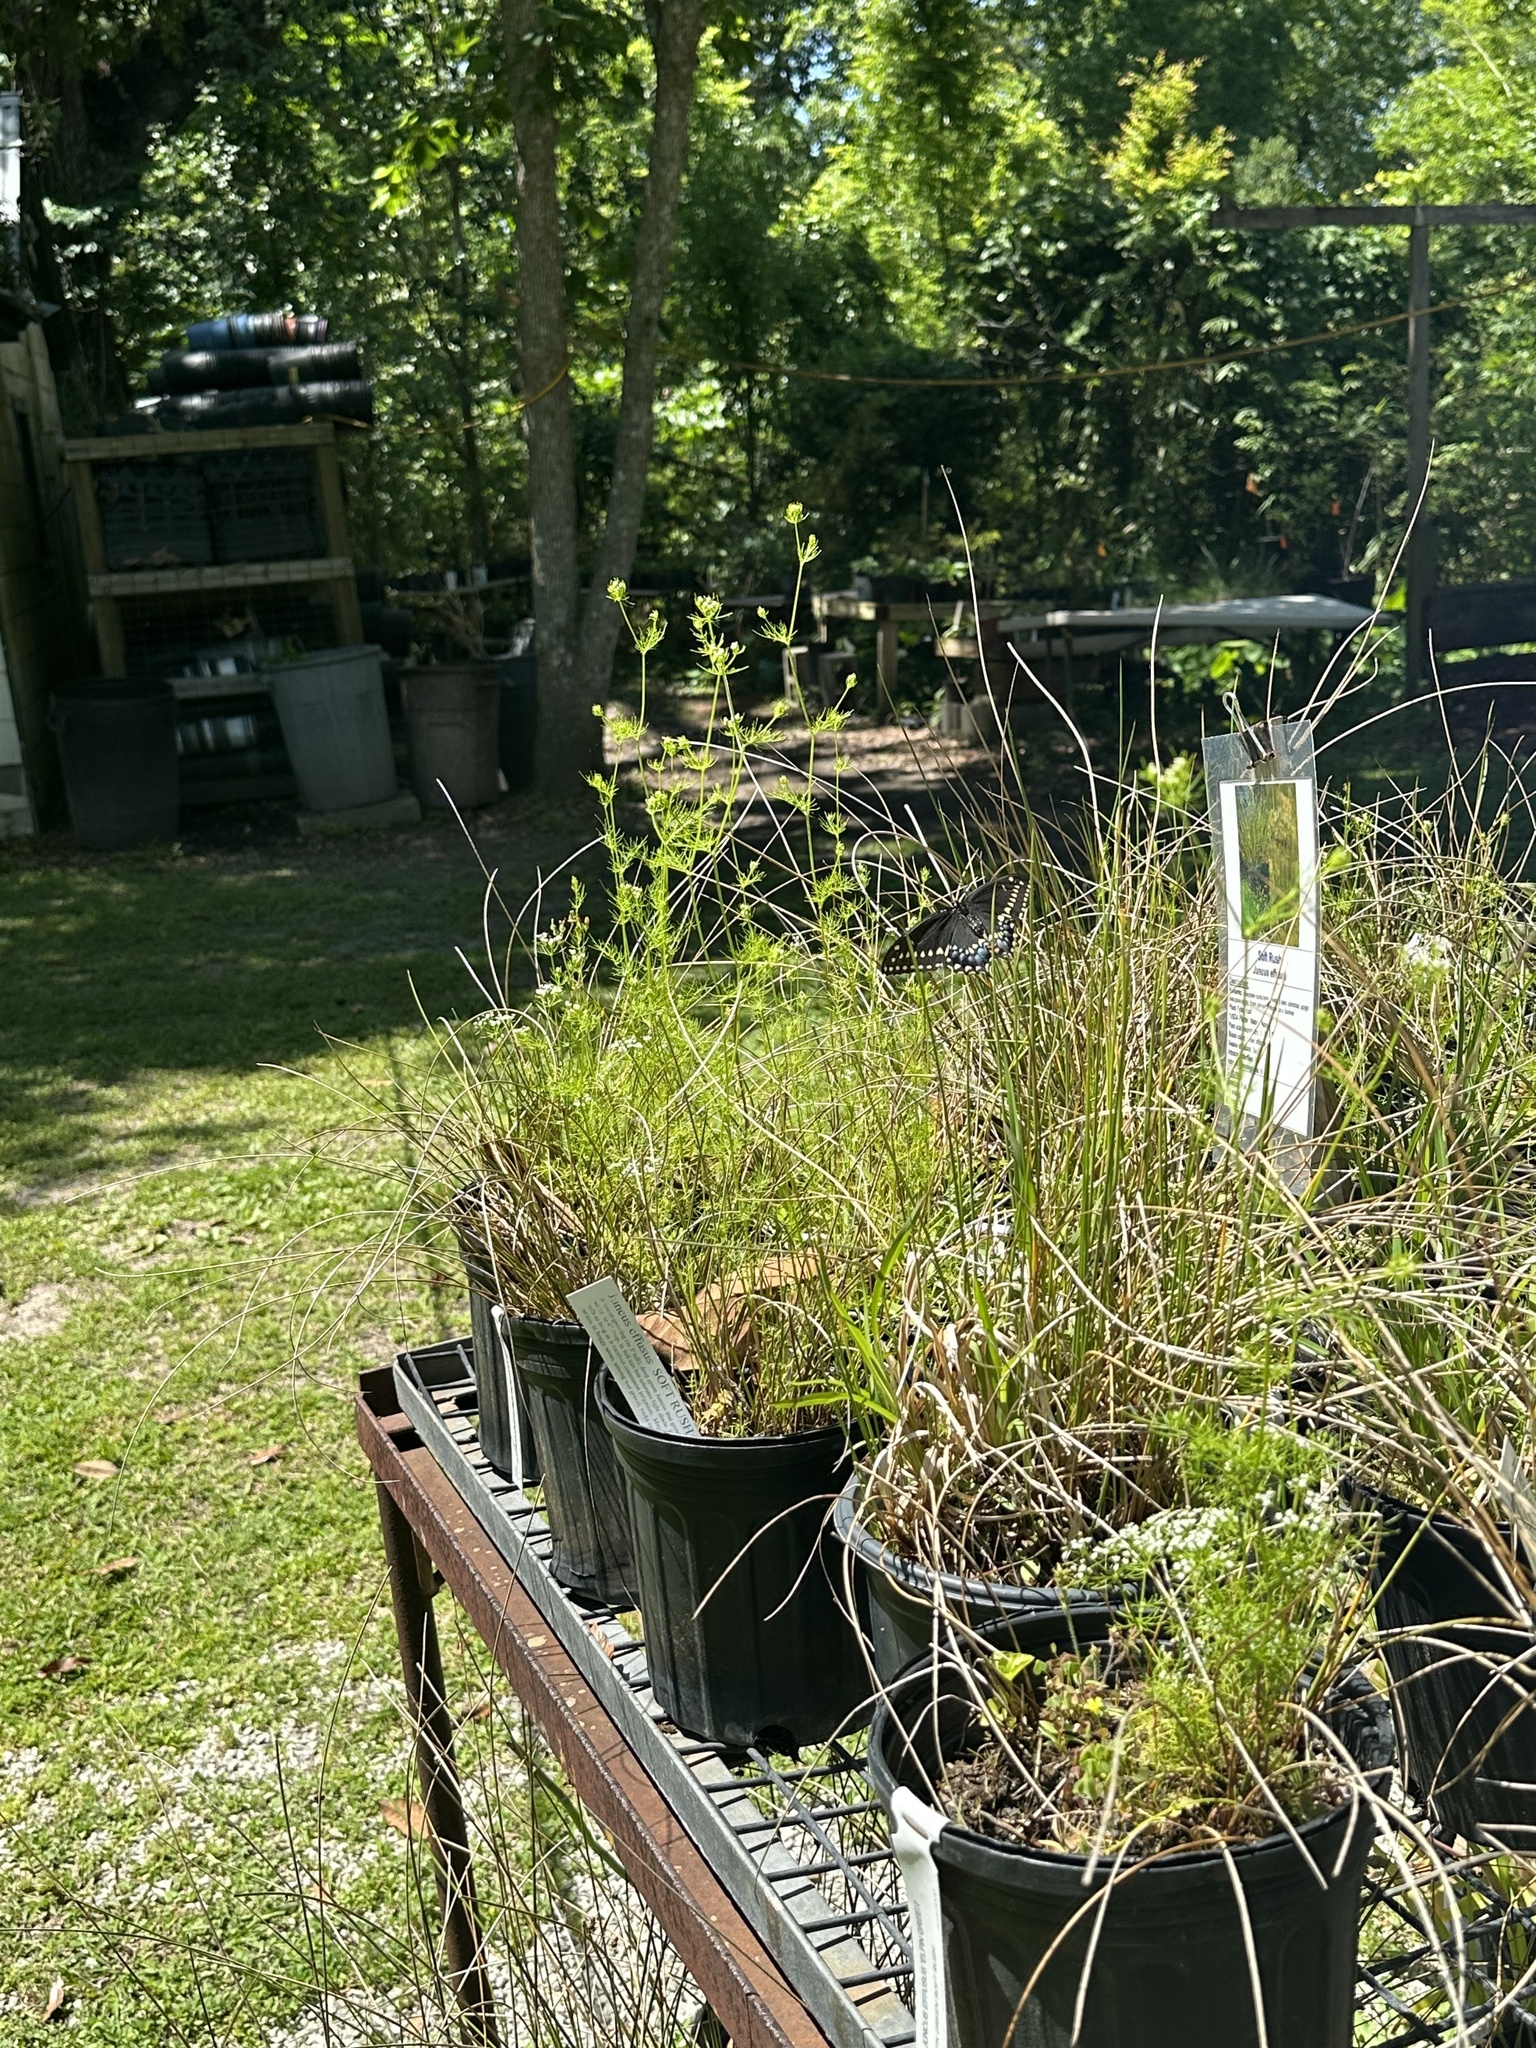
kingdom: Animalia
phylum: Arthropoda
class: Insecta
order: Lepidoptera
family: Papilionidae
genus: Papilio
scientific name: Papilio polyxenes
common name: Black swallowtail
